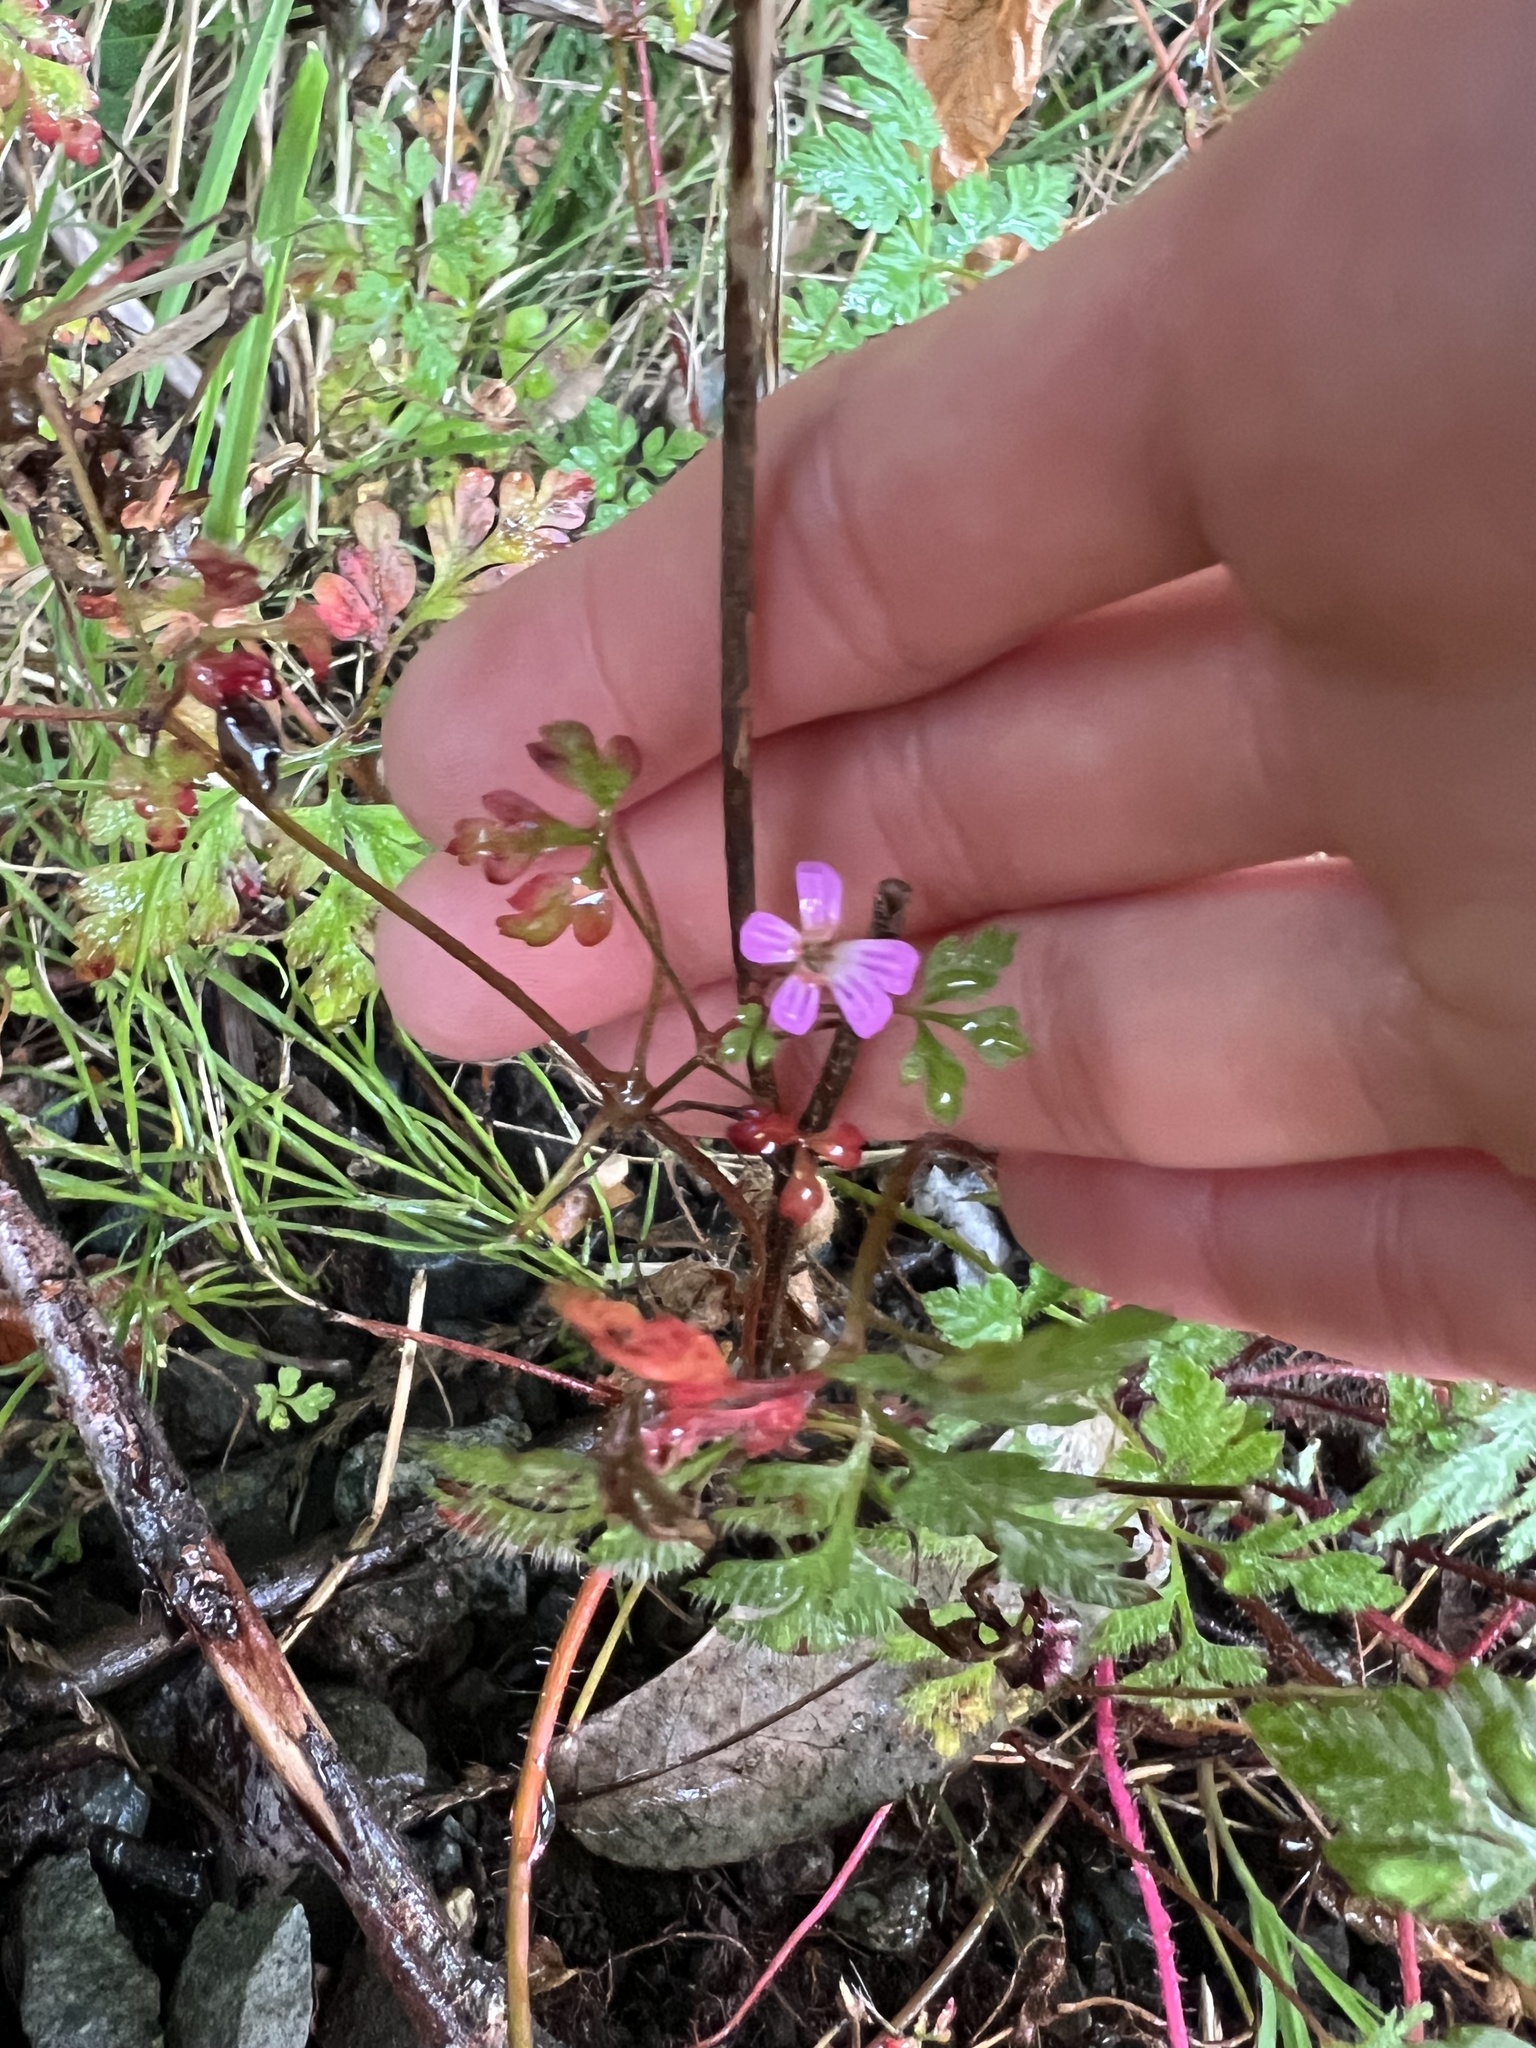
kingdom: Plantae
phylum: Tracheophyta
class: Magnoliopsida
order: Geraniales
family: Geraniaceae
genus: Geranium
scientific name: Geranium robertianum
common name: Herb-robert
